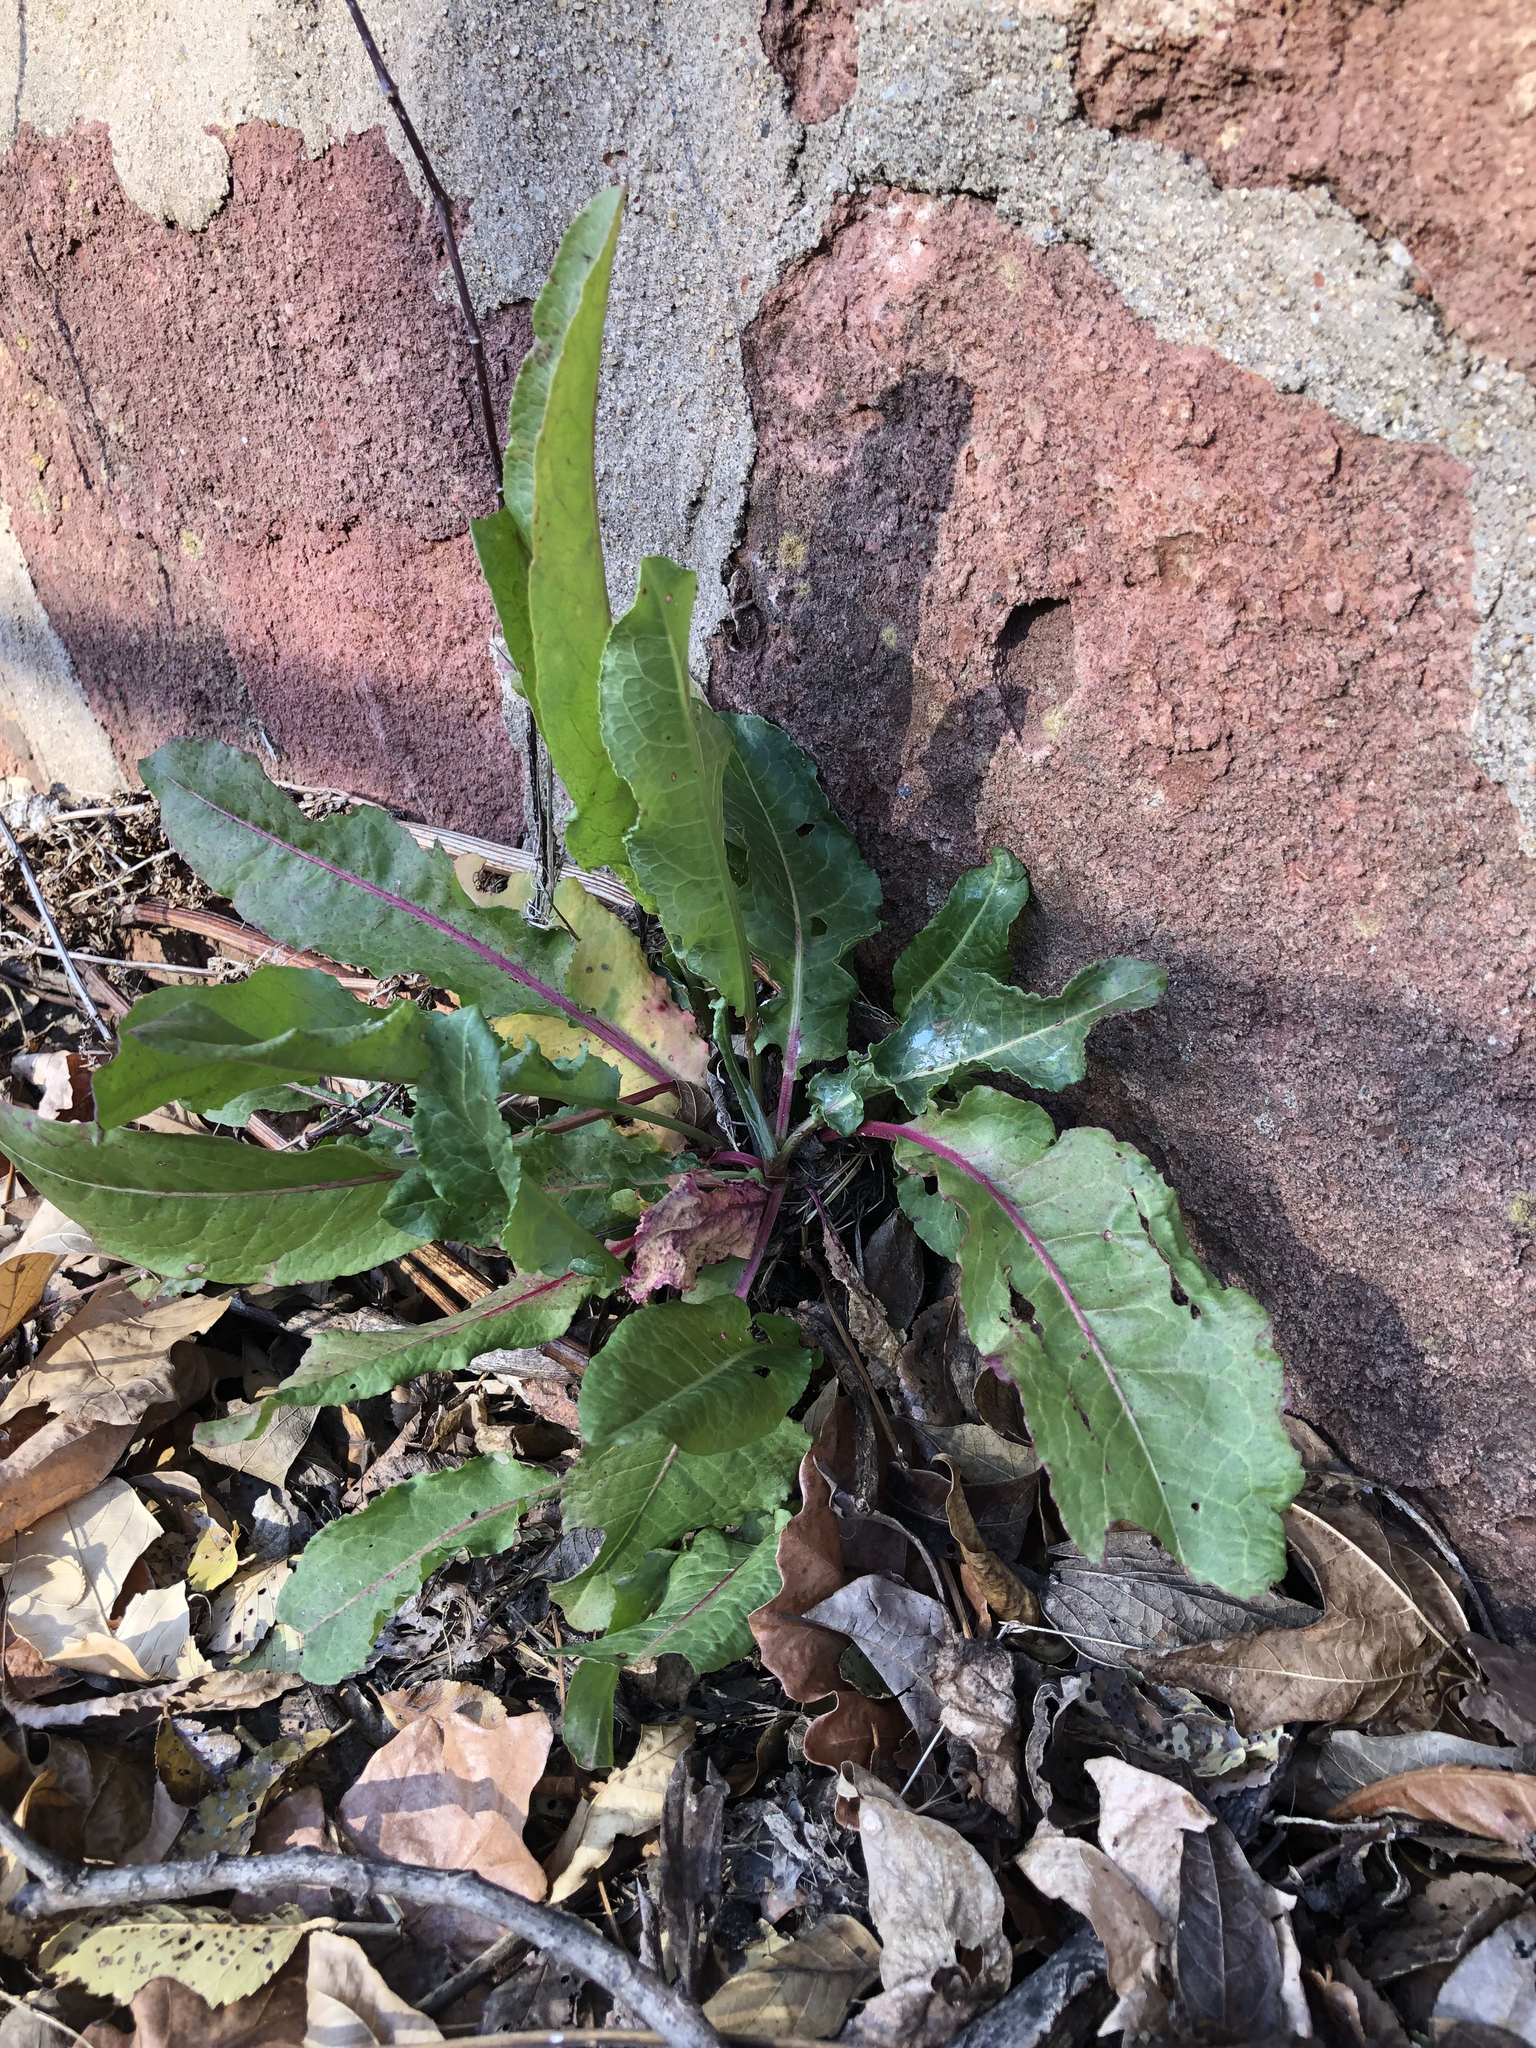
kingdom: Plantae
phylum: Tracheophyta
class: Magnoliopsida
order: Caryophyllales
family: Polygonaceae
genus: Rumex
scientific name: Rumex crispus
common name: Curled dock
